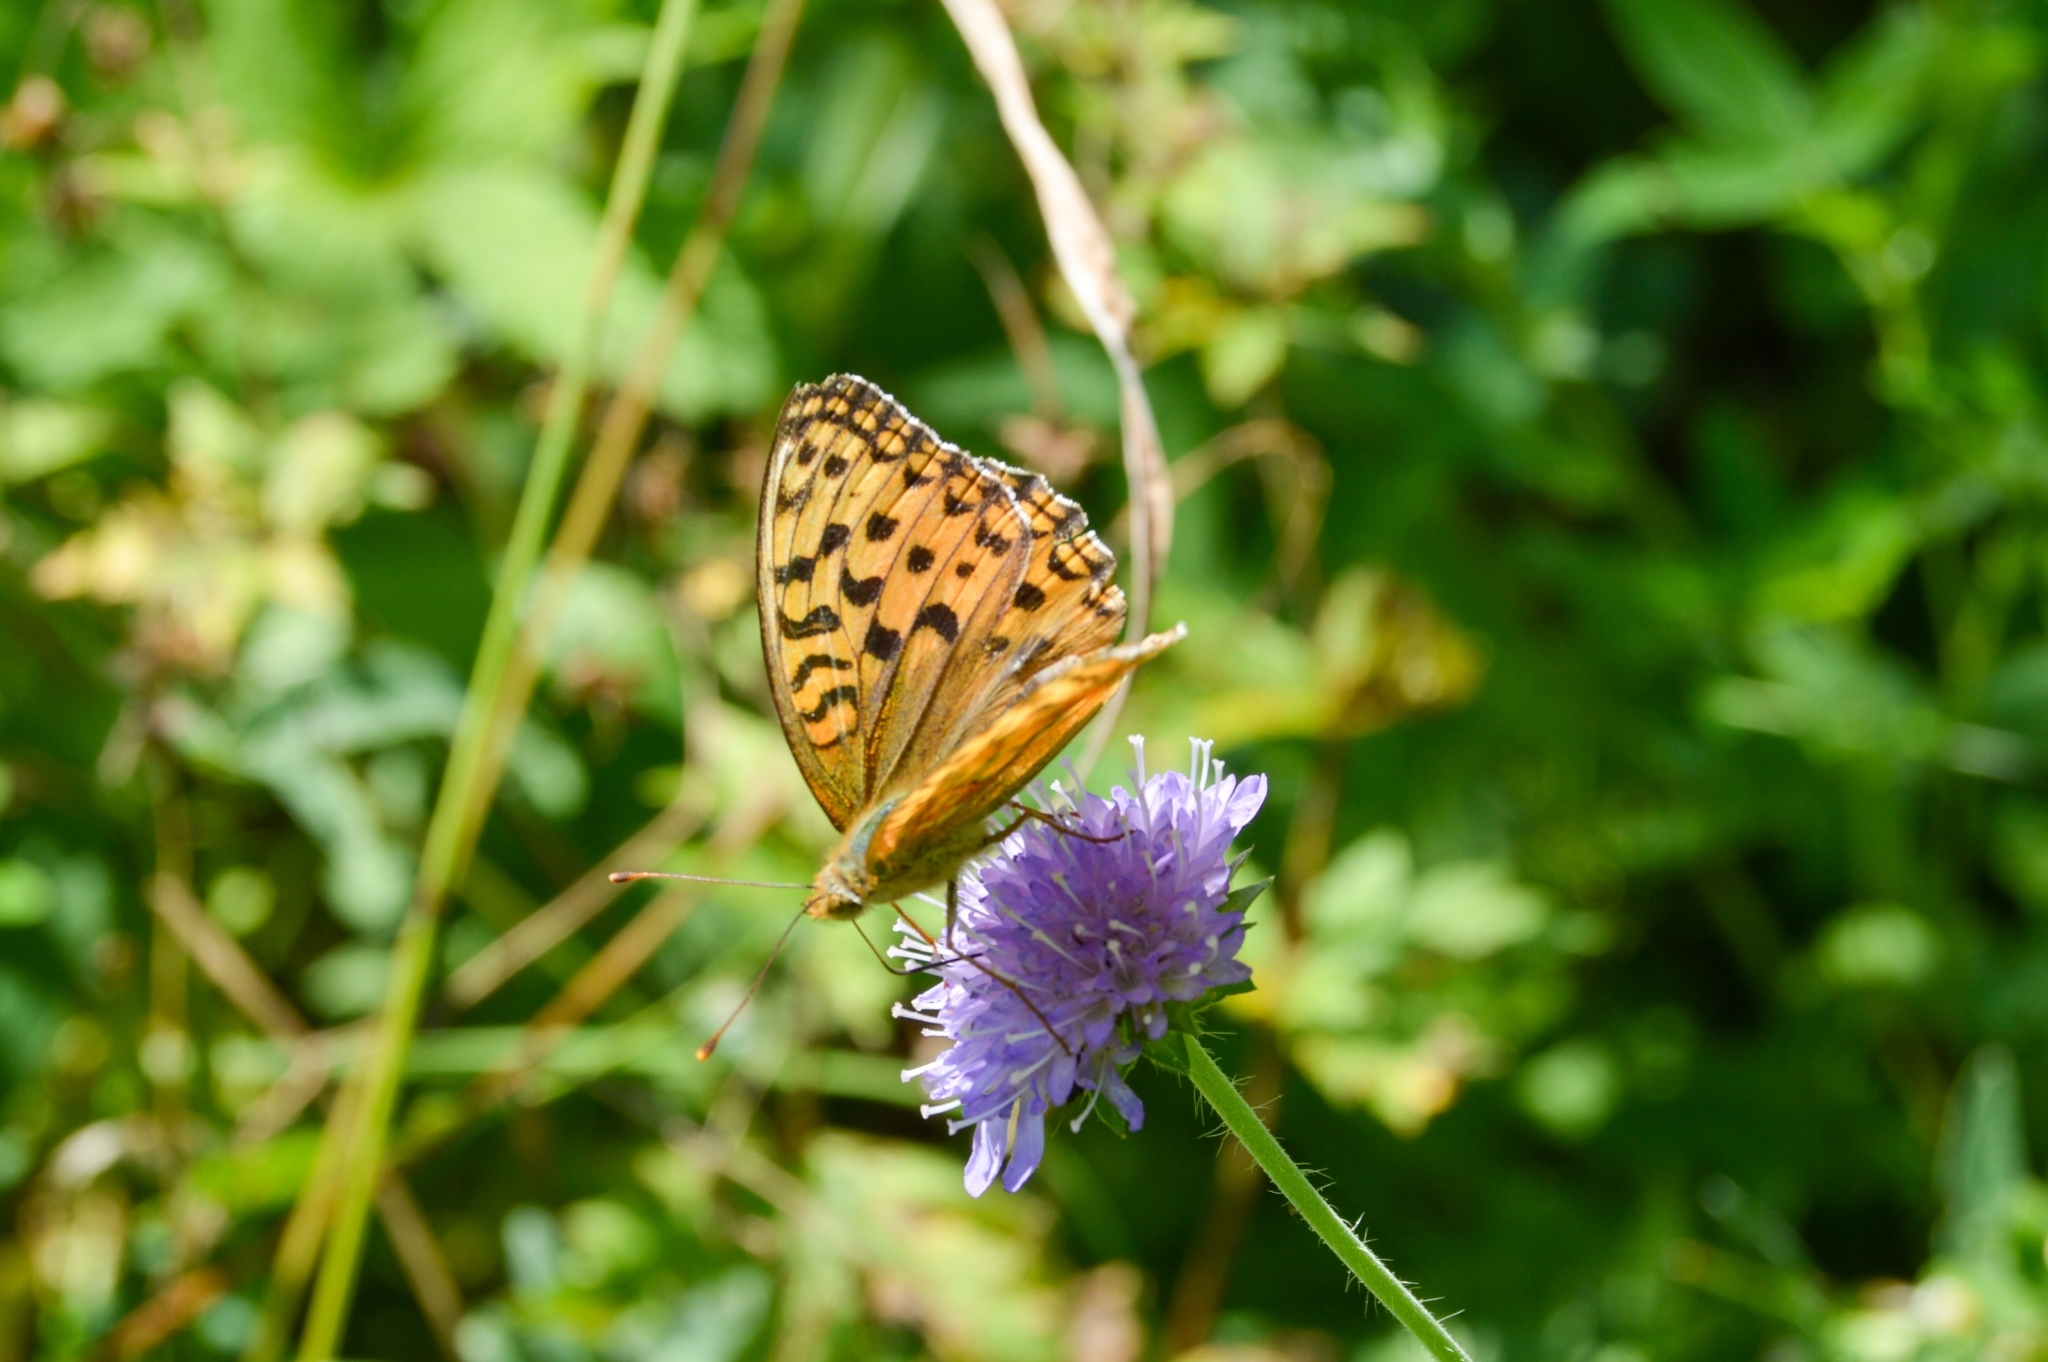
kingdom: Animalia
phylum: Arthropoda
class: Insecta
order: Lepidoptera
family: Nymphalidae
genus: Fabriciana
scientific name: Fabriciana adippe
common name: High brown fritillary
